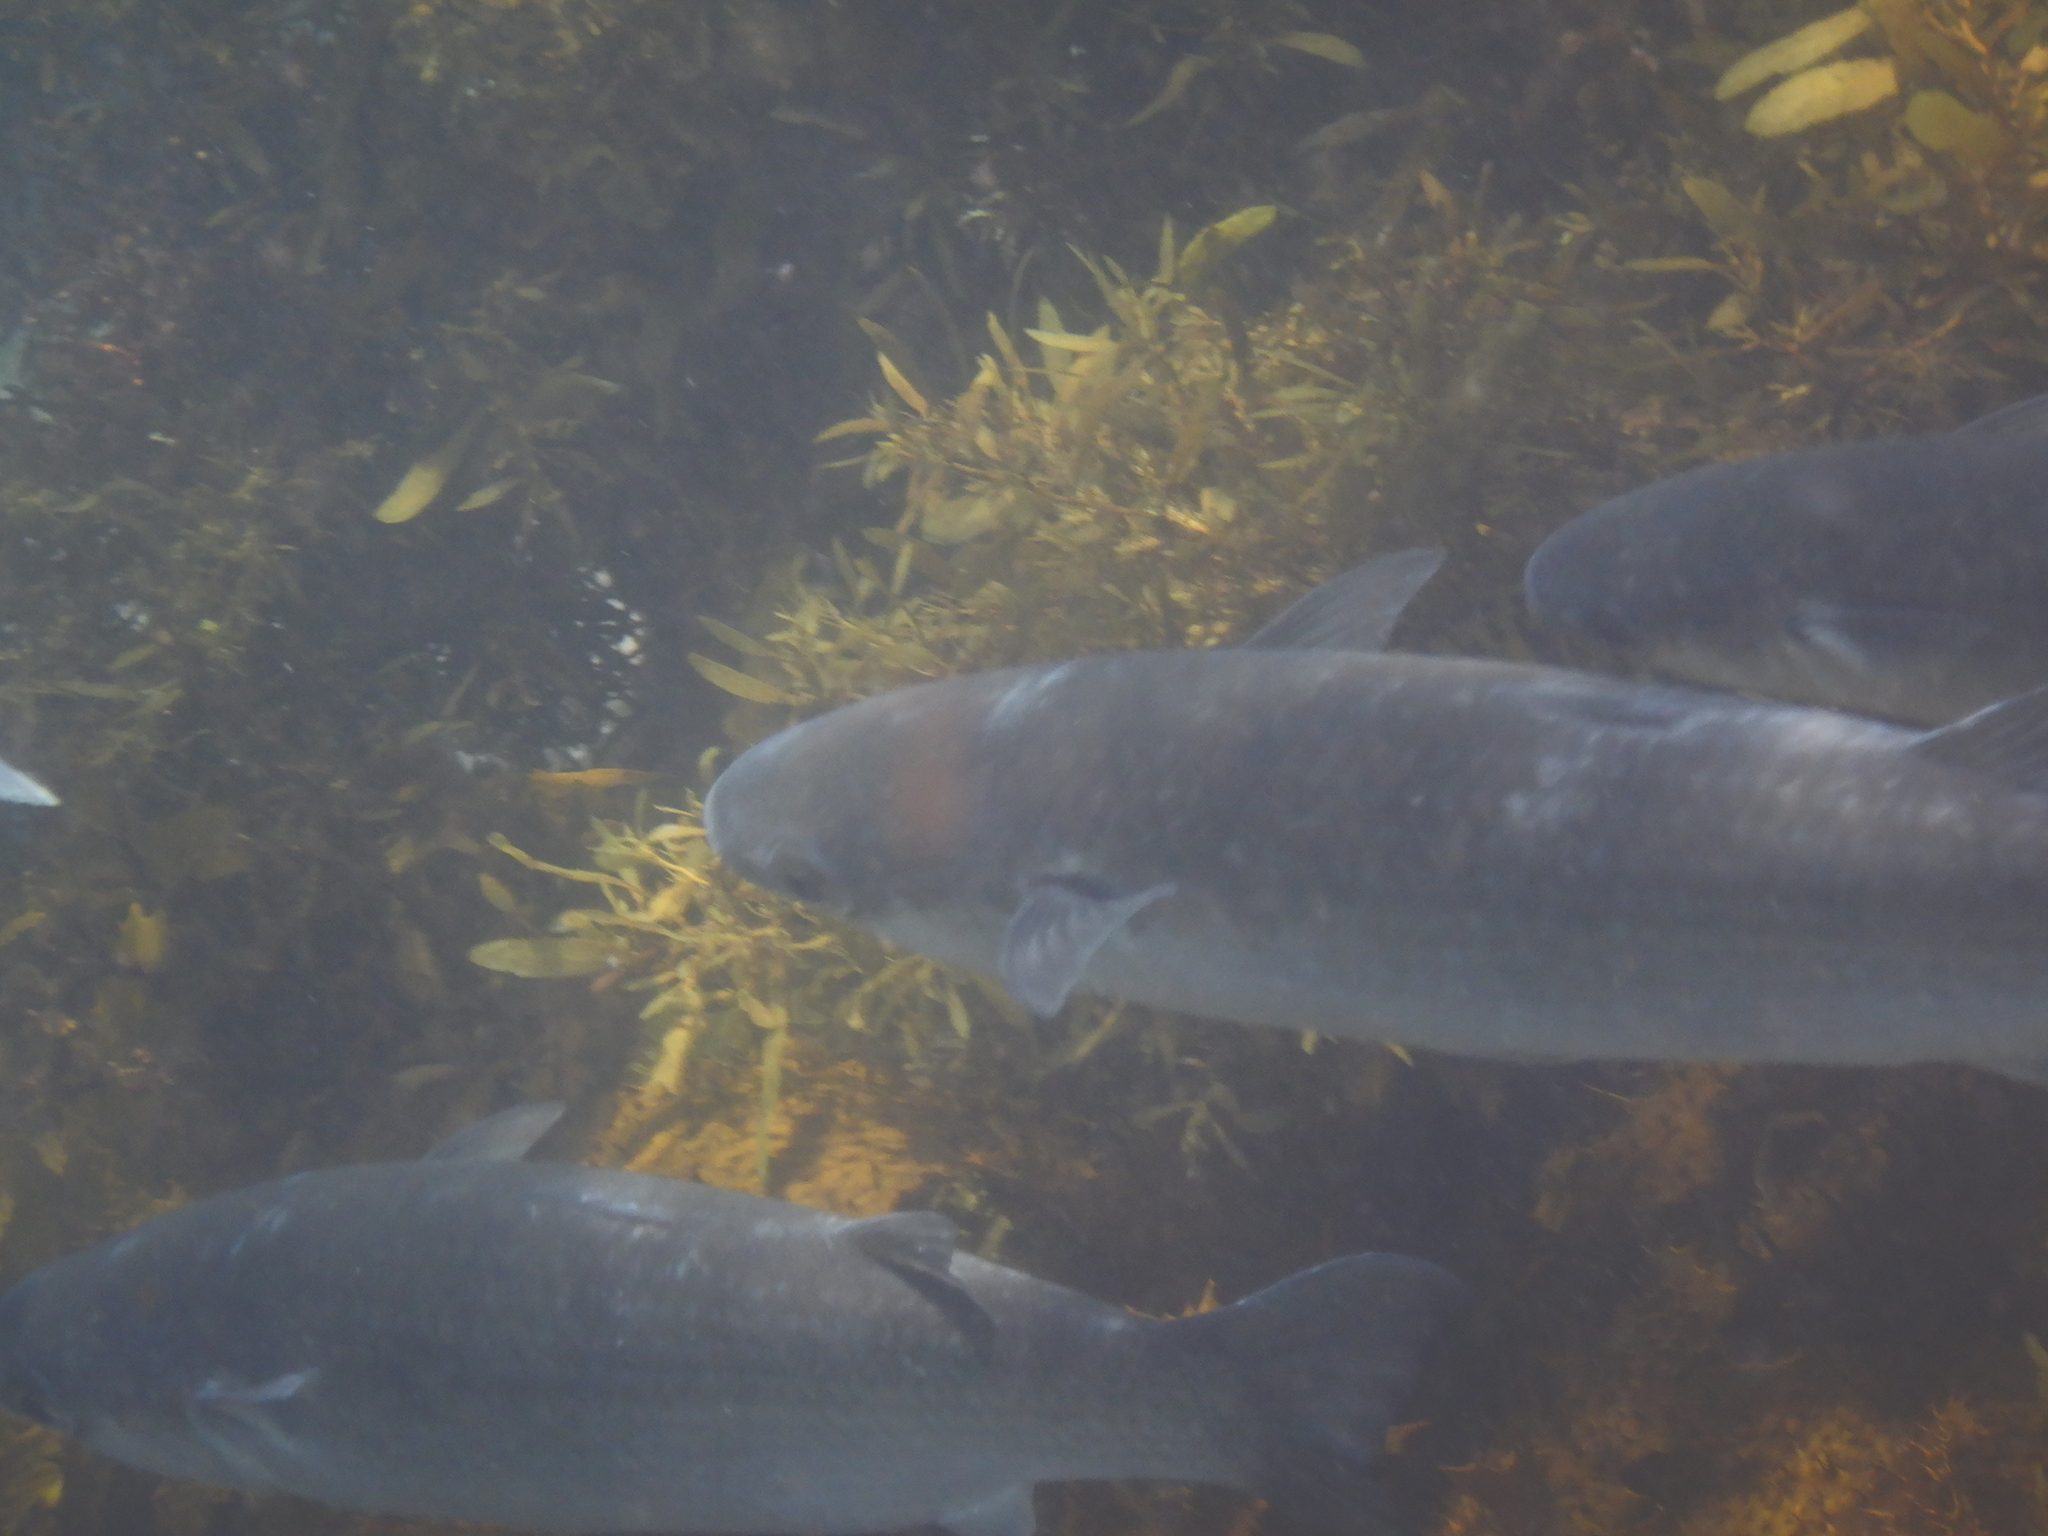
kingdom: Animalia
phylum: Chordata
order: Mugiliformes
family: Mugilidae
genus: Mugil
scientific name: Mugil cephalus
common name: Grey mullet
